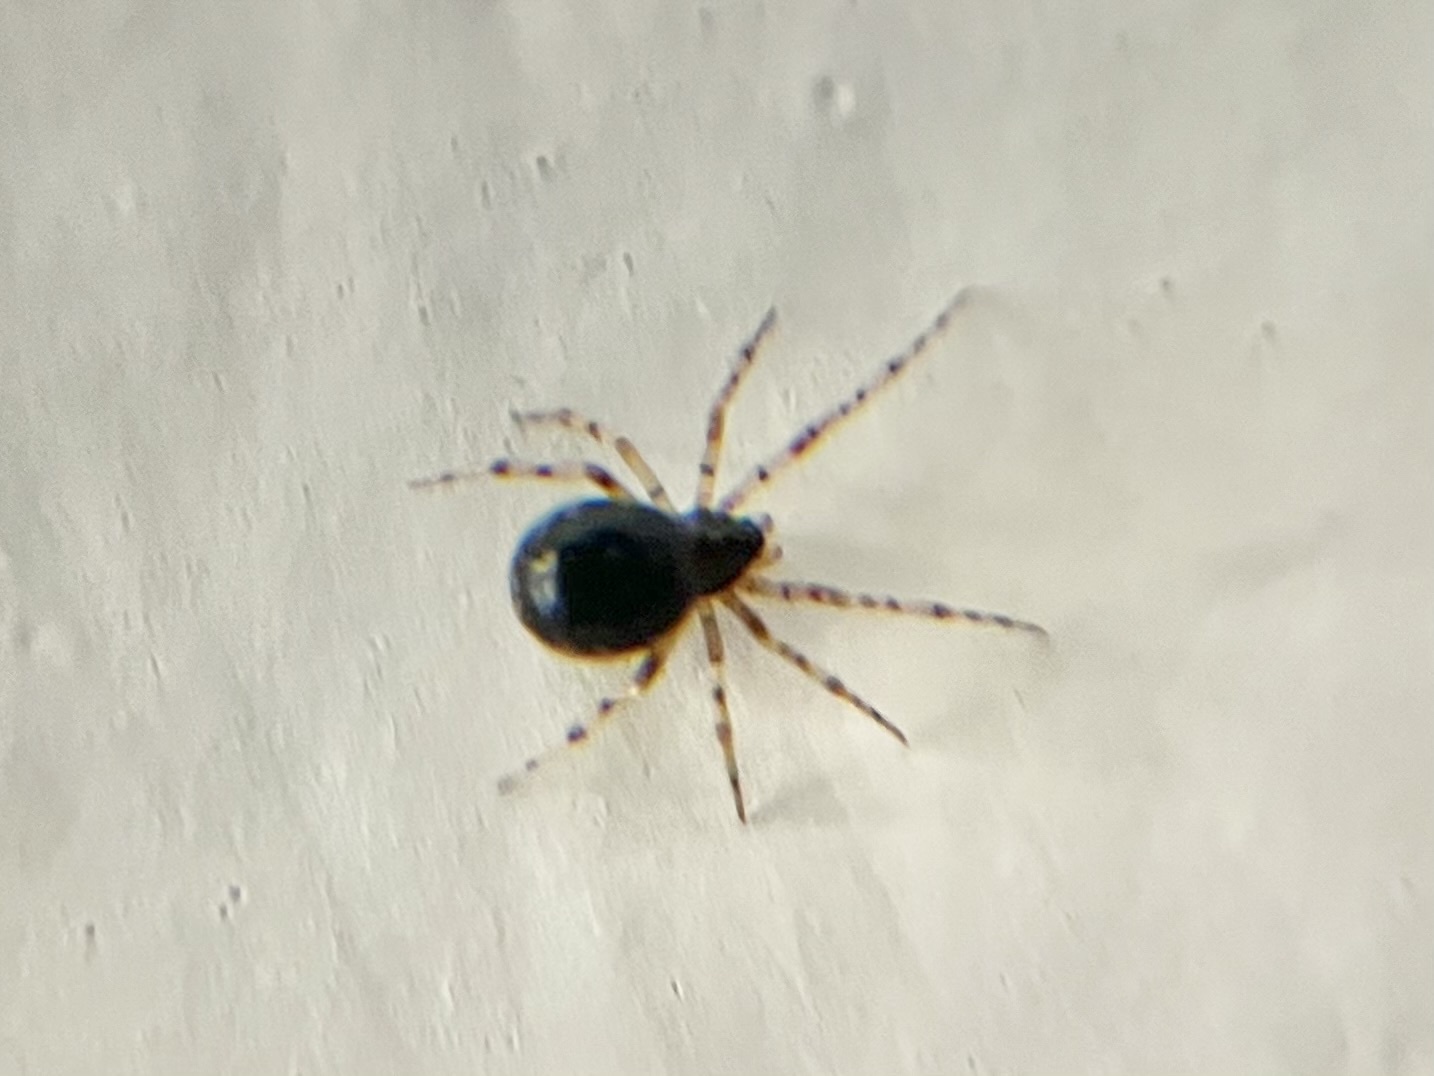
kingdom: Animalia
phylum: Arthropoda
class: Arachnida
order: Araneae
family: Theridiidae
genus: Sardinidion
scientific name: Sardinidion blackwalli
